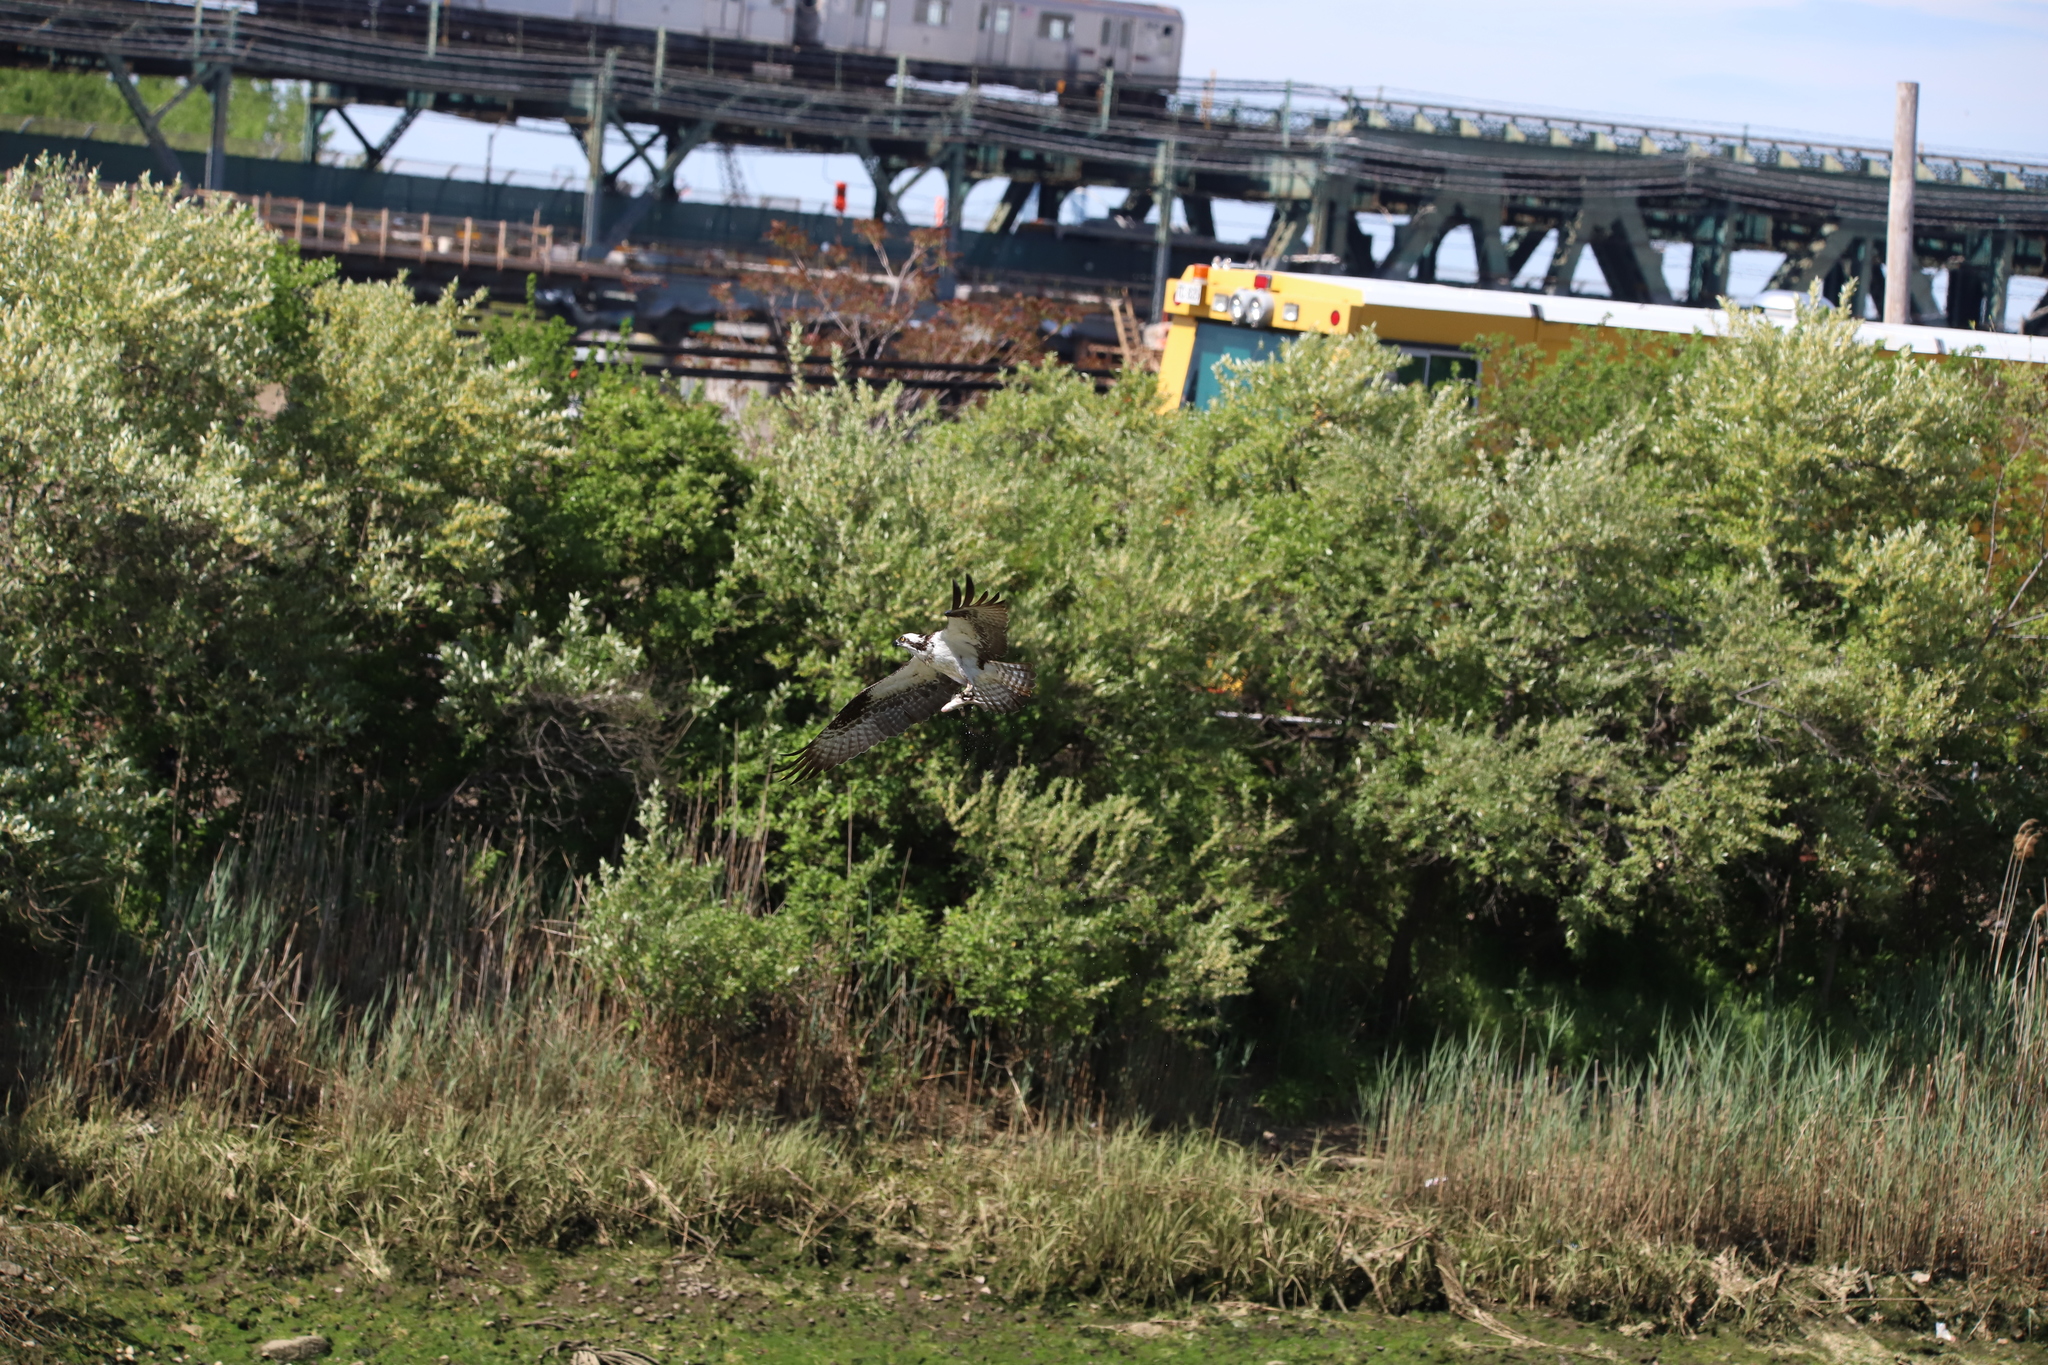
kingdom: Animalia
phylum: Chordata
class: Aves
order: Accipitriformes
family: Pandionidae
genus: Pandion
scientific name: Pandion haliaetus
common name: Osprey
